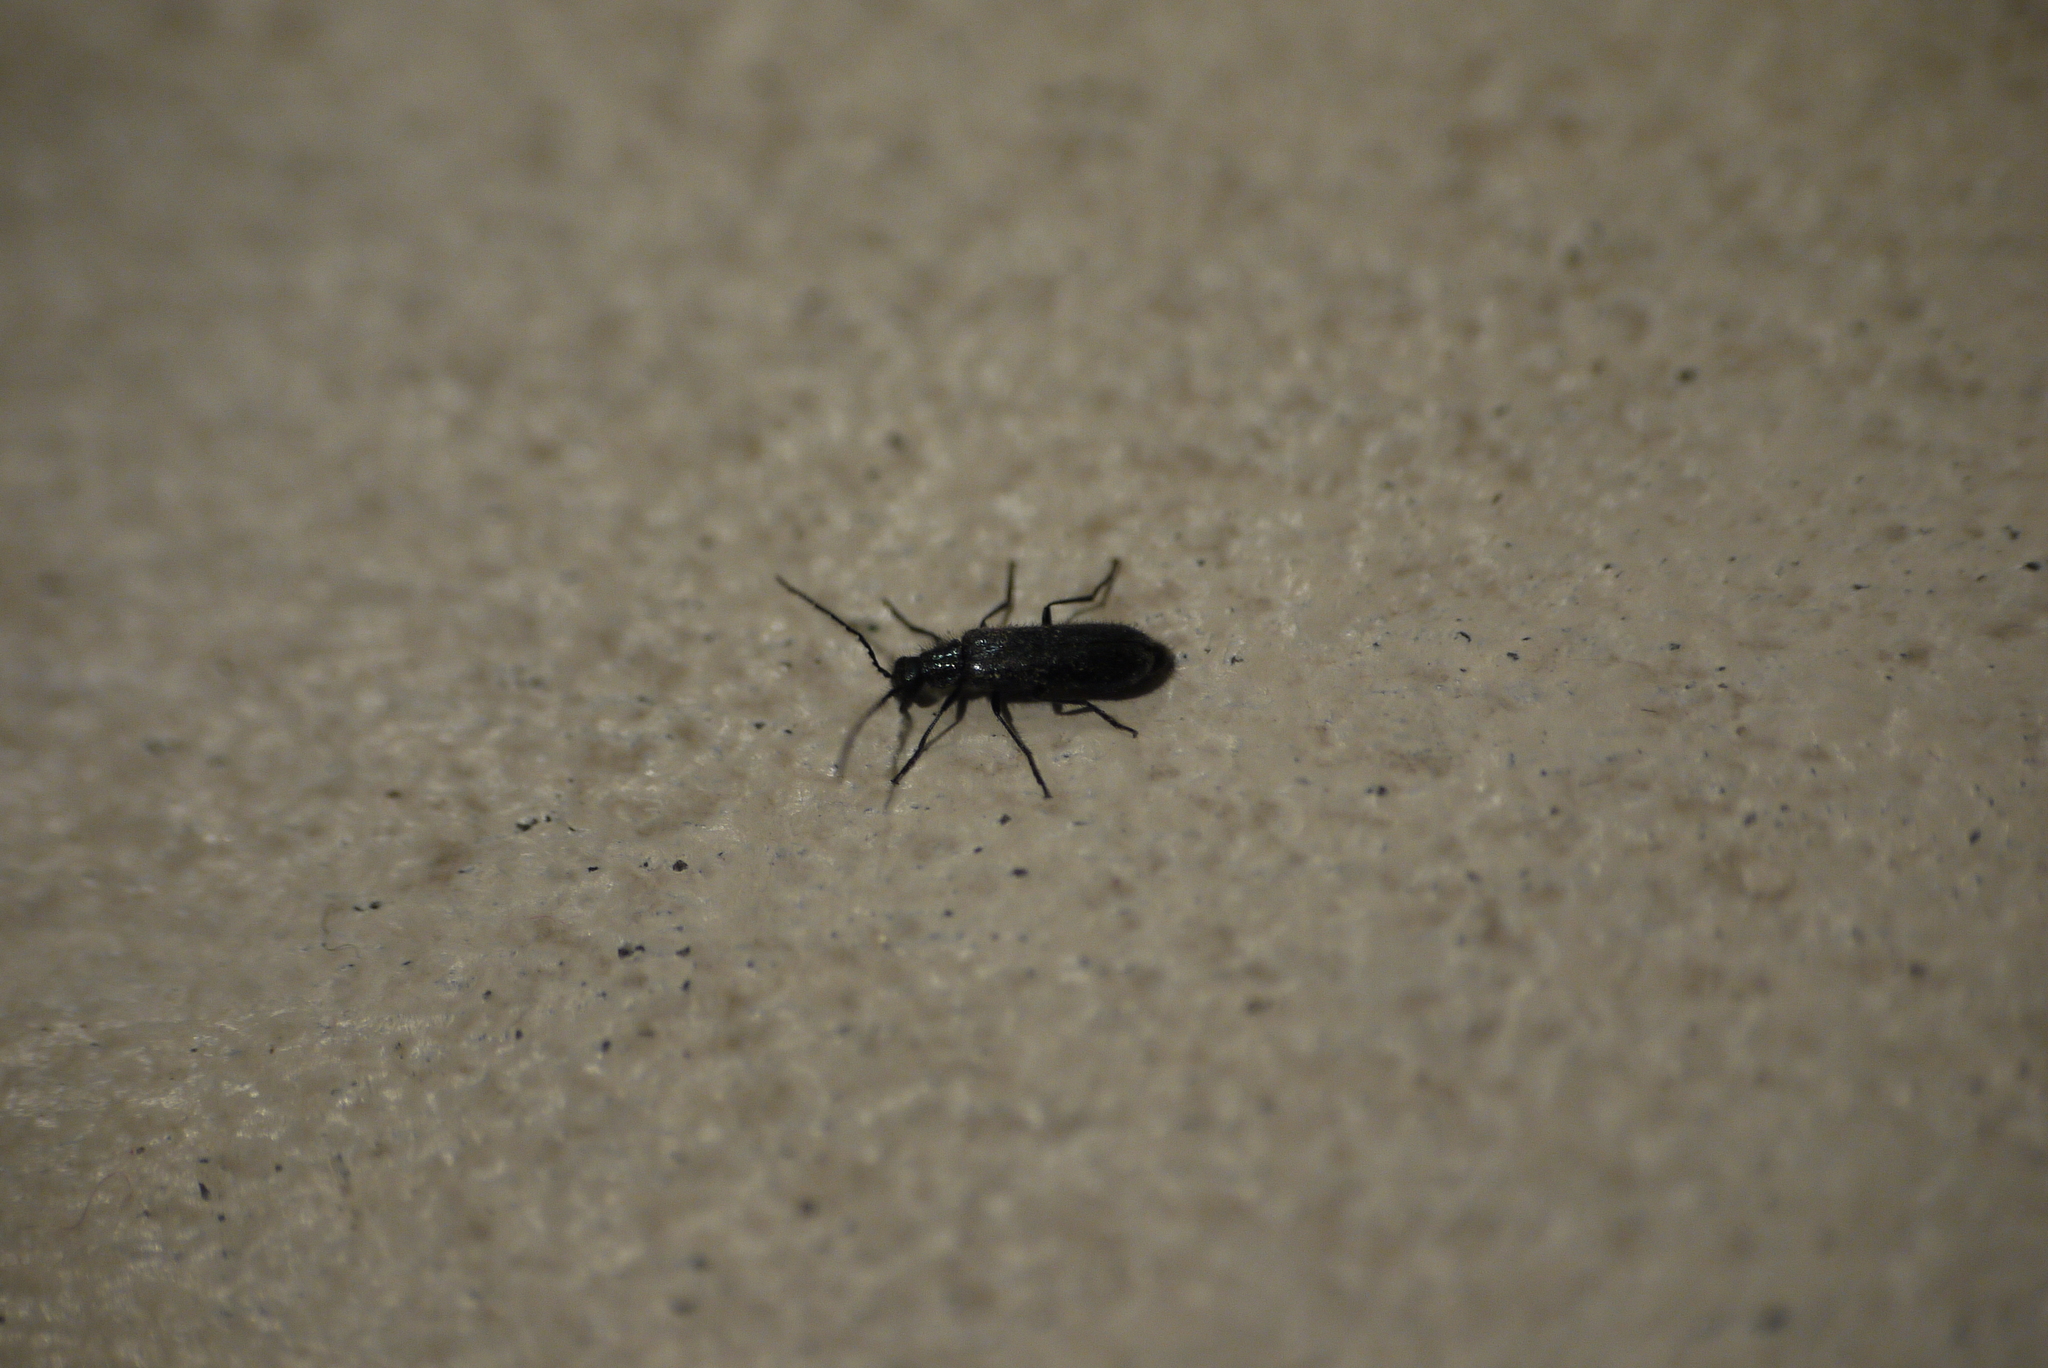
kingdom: Animalia
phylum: Arthropoda
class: Insecta
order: Coleoptera
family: Melyridae
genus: Dasytes
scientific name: Dasytes caeruleus
